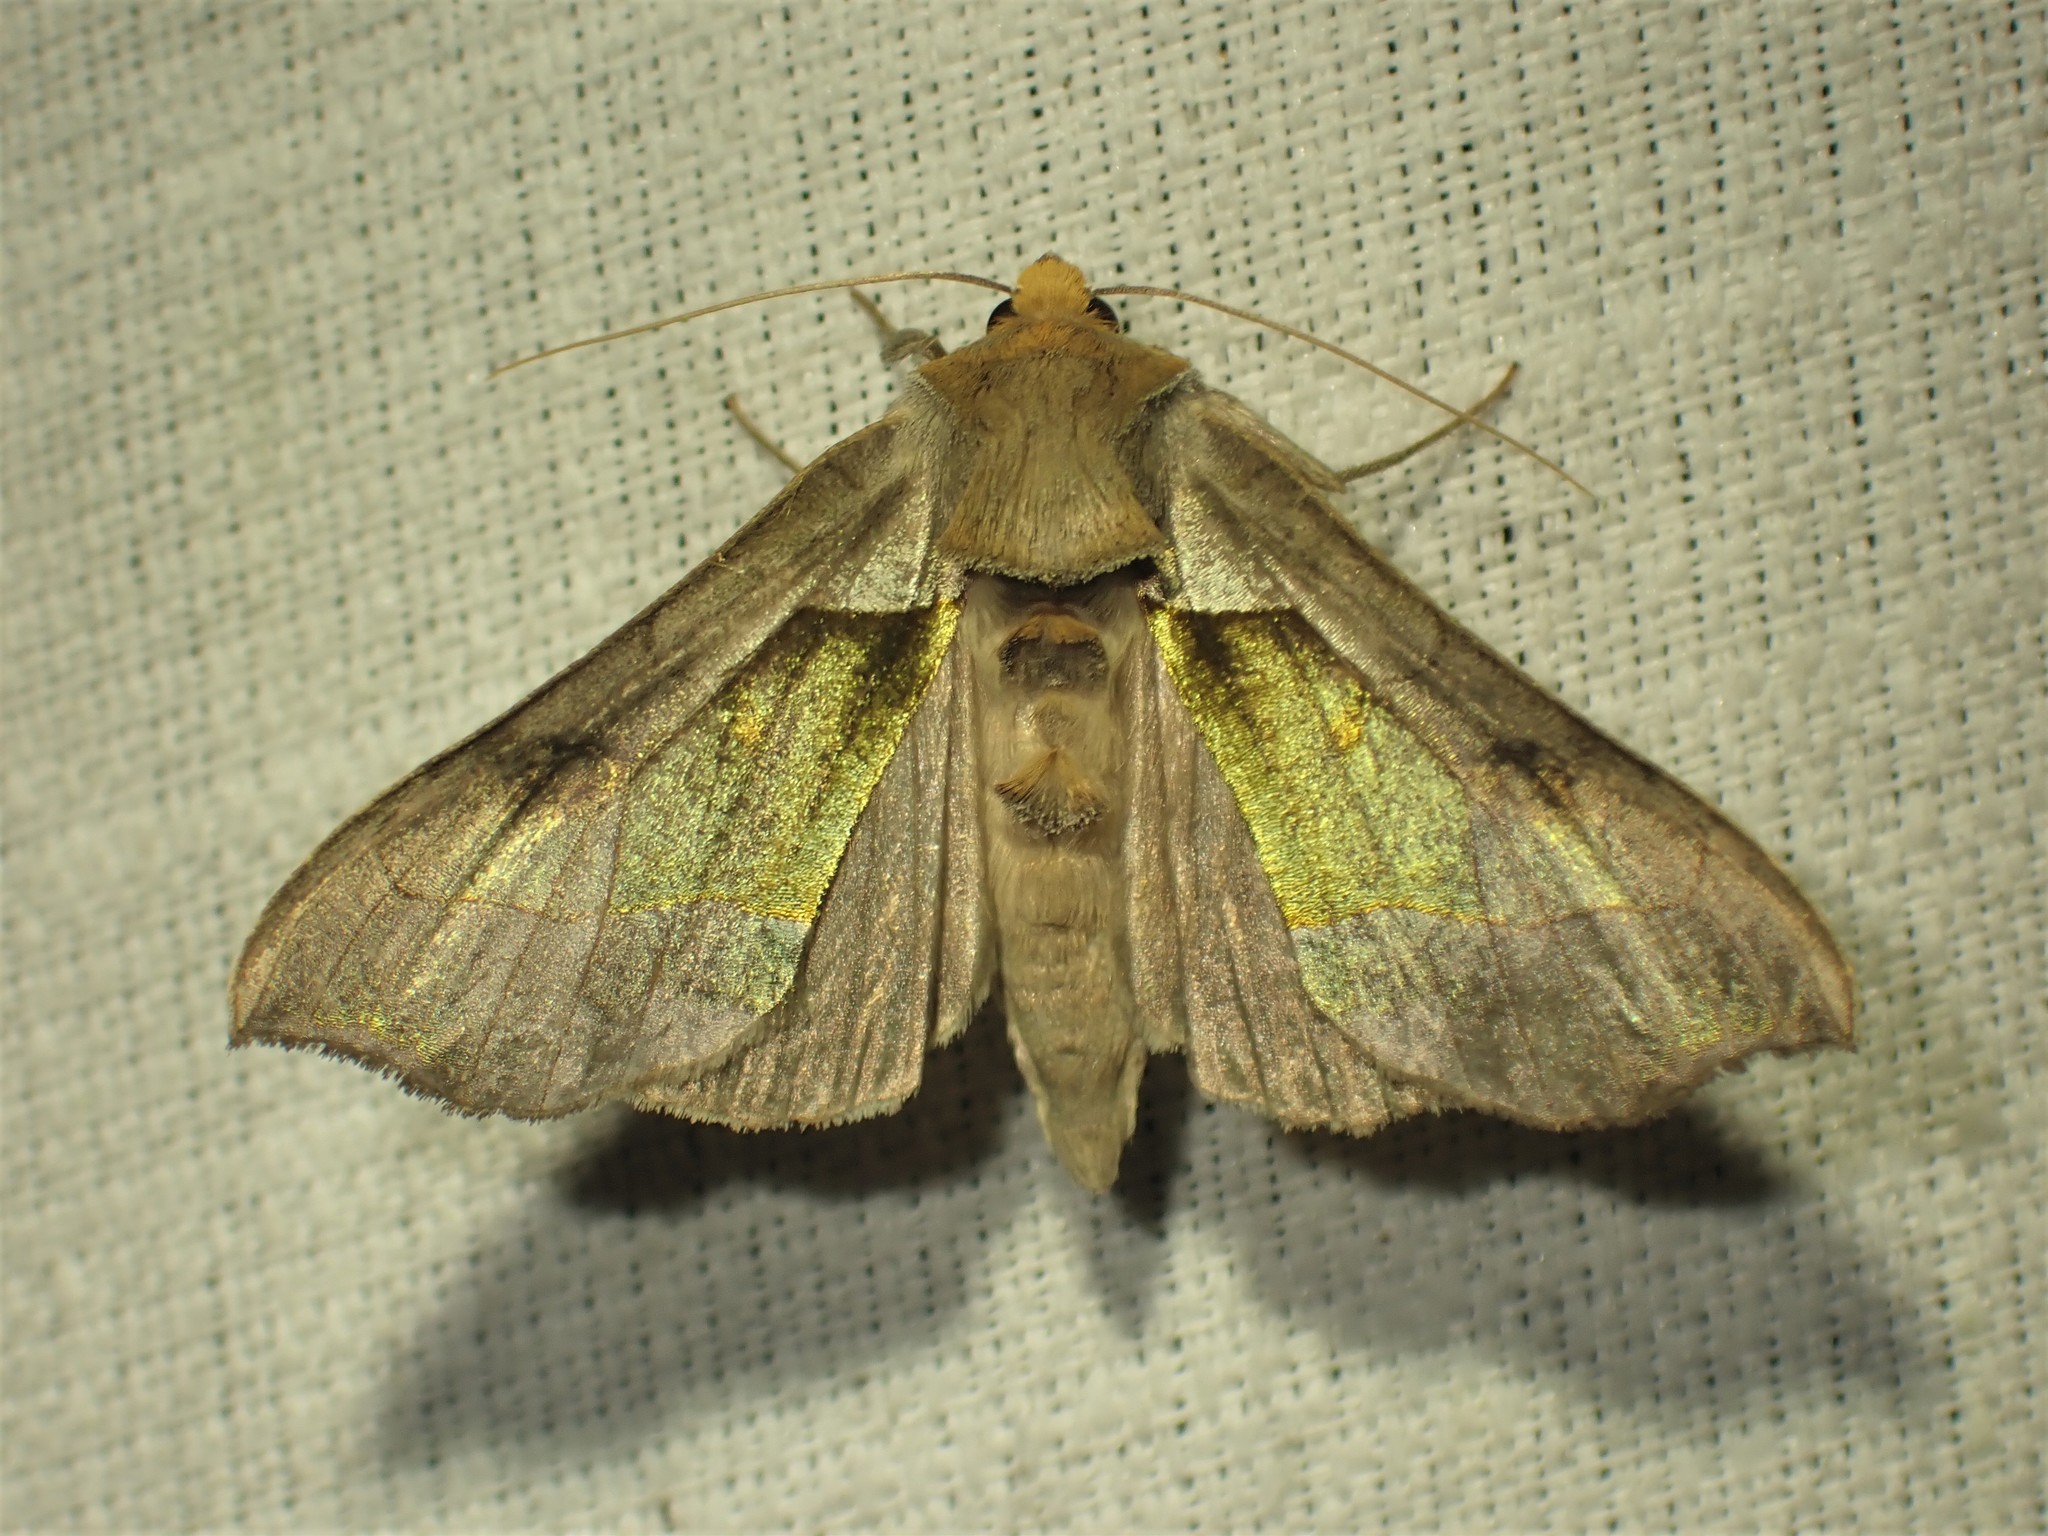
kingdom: Animalia
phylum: Arthropoda
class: Insecta
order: Lepidoptera
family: Noctuidae
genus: Diachrysia
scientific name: Diachrysia balluca
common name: Green-patched looper moth
